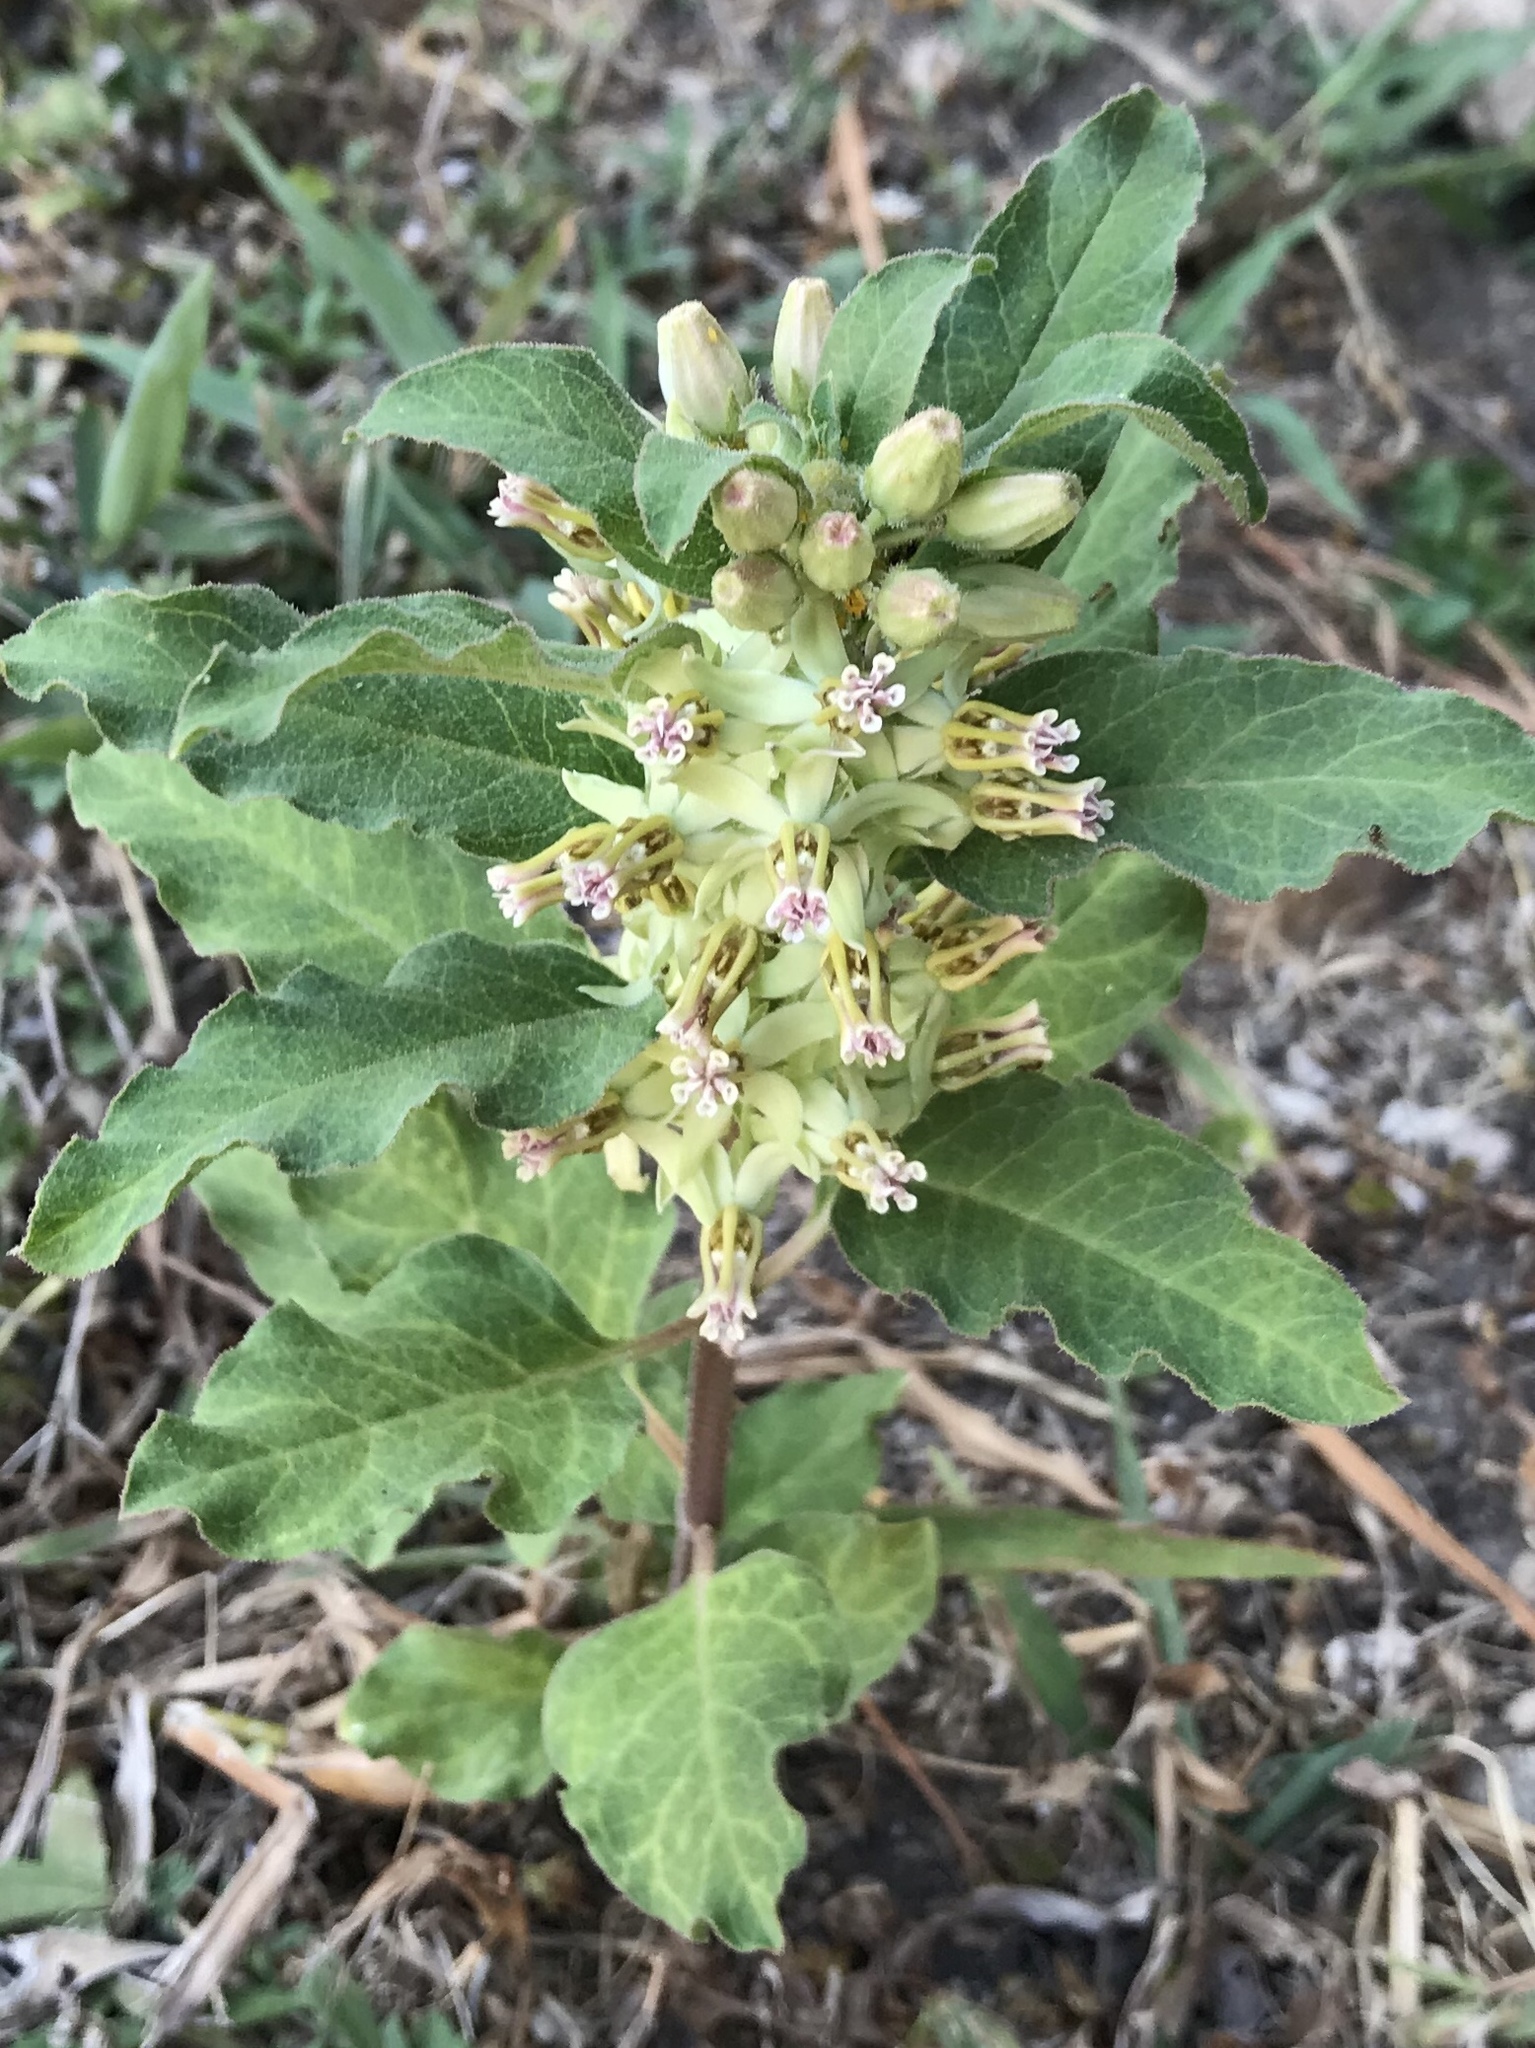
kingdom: Plantae
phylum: Tracheophyta
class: Magnoliopsida
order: Gentianales
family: Apocynaceae
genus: Asclepias
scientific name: Asclepias oenotheroides
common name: Zizotes milkweed
